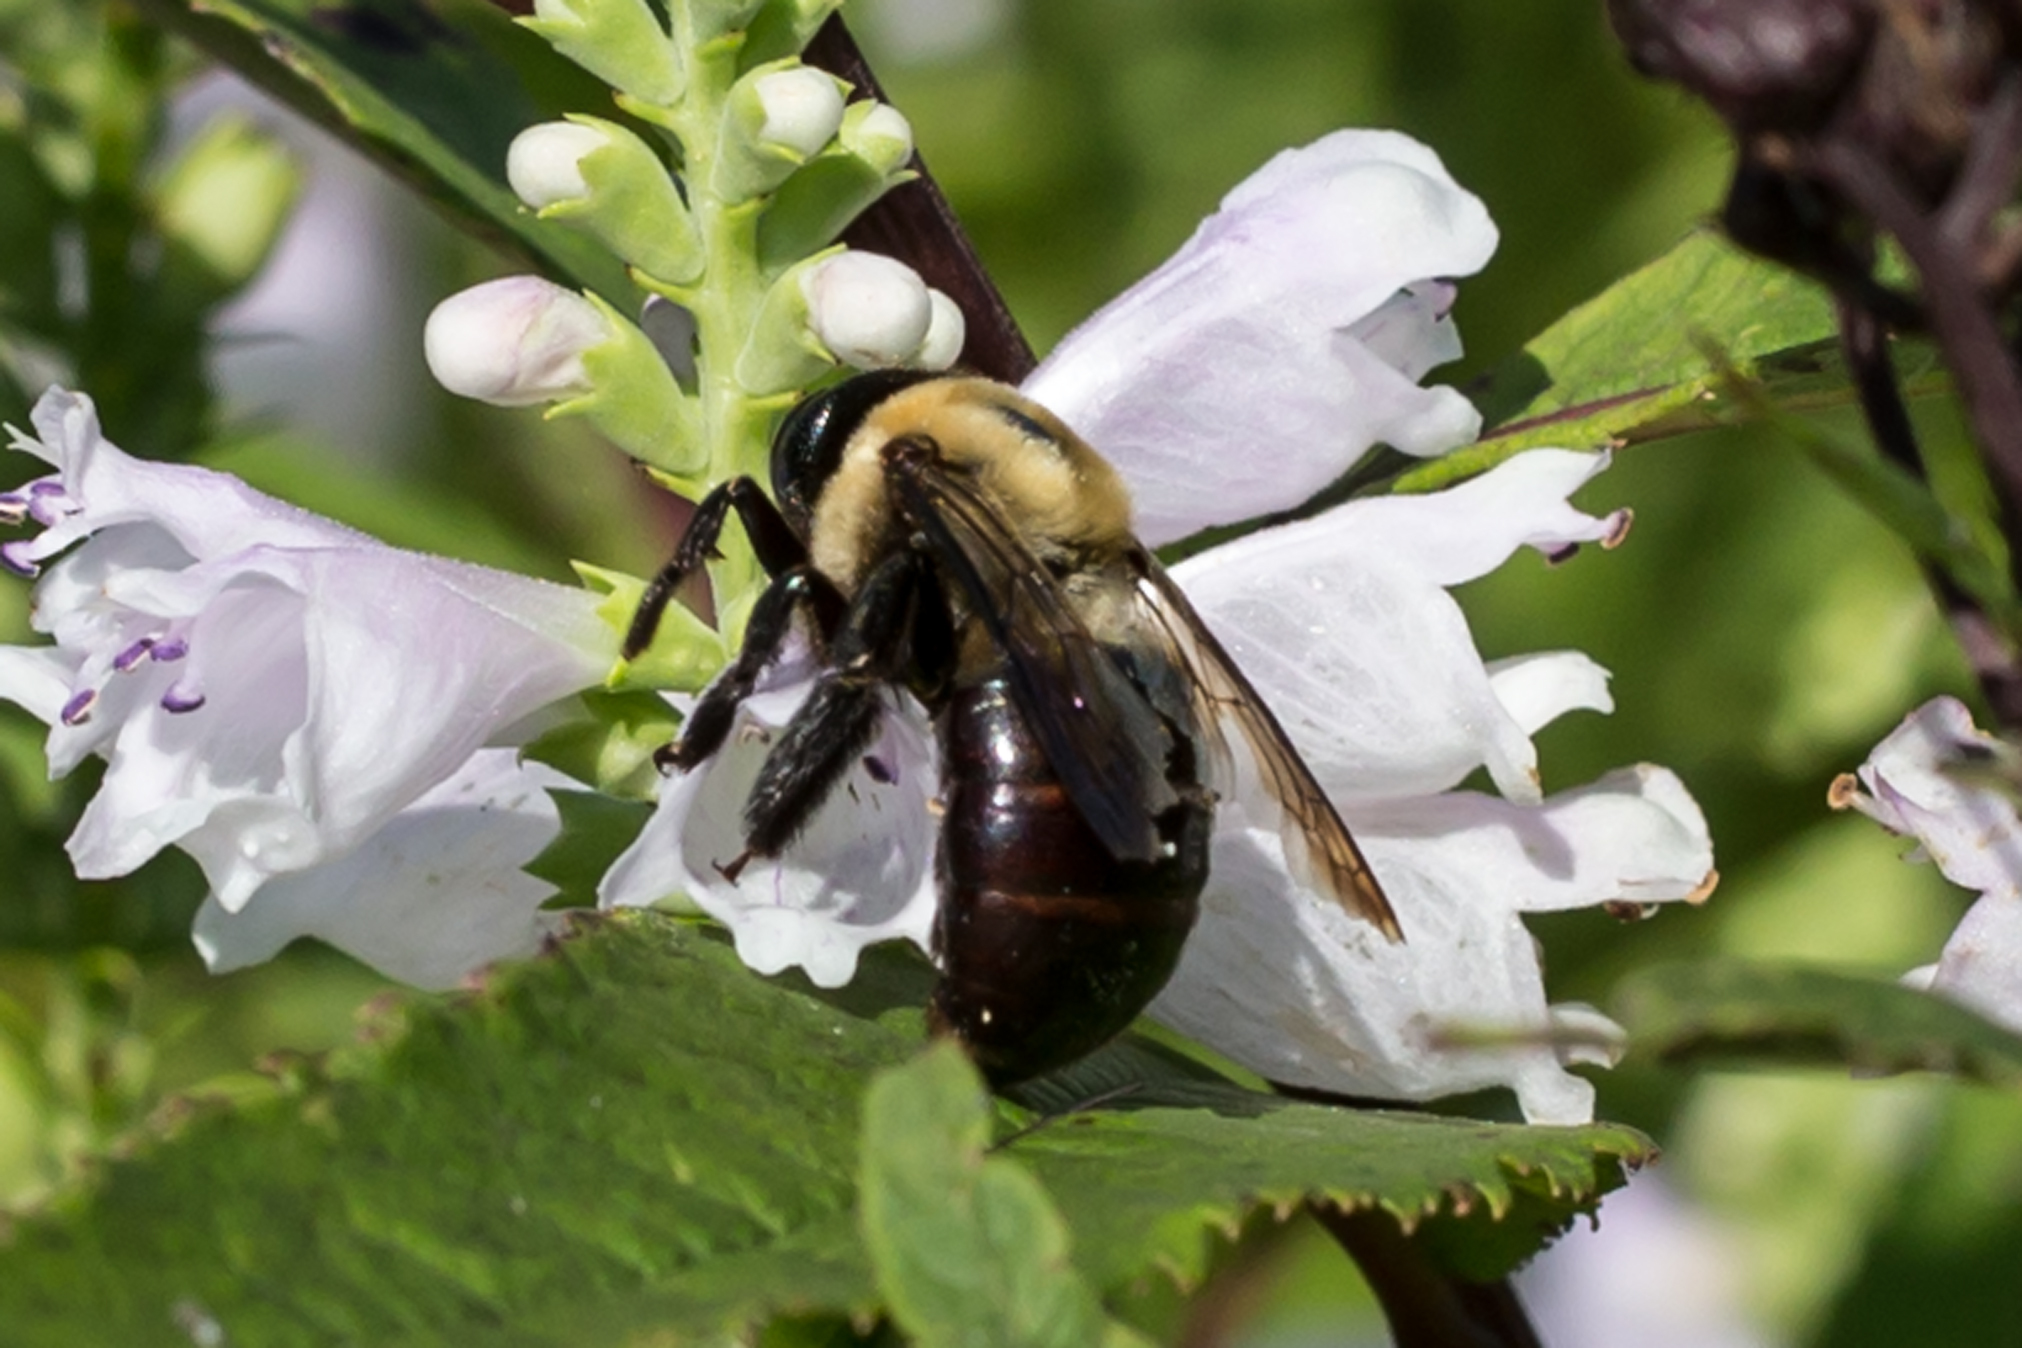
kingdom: Animalia
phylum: Arthropoda
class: Insecta
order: Hymenoptera
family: Apidae
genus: Xylocopa
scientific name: Xylocopa virginica
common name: Carpenter bee
